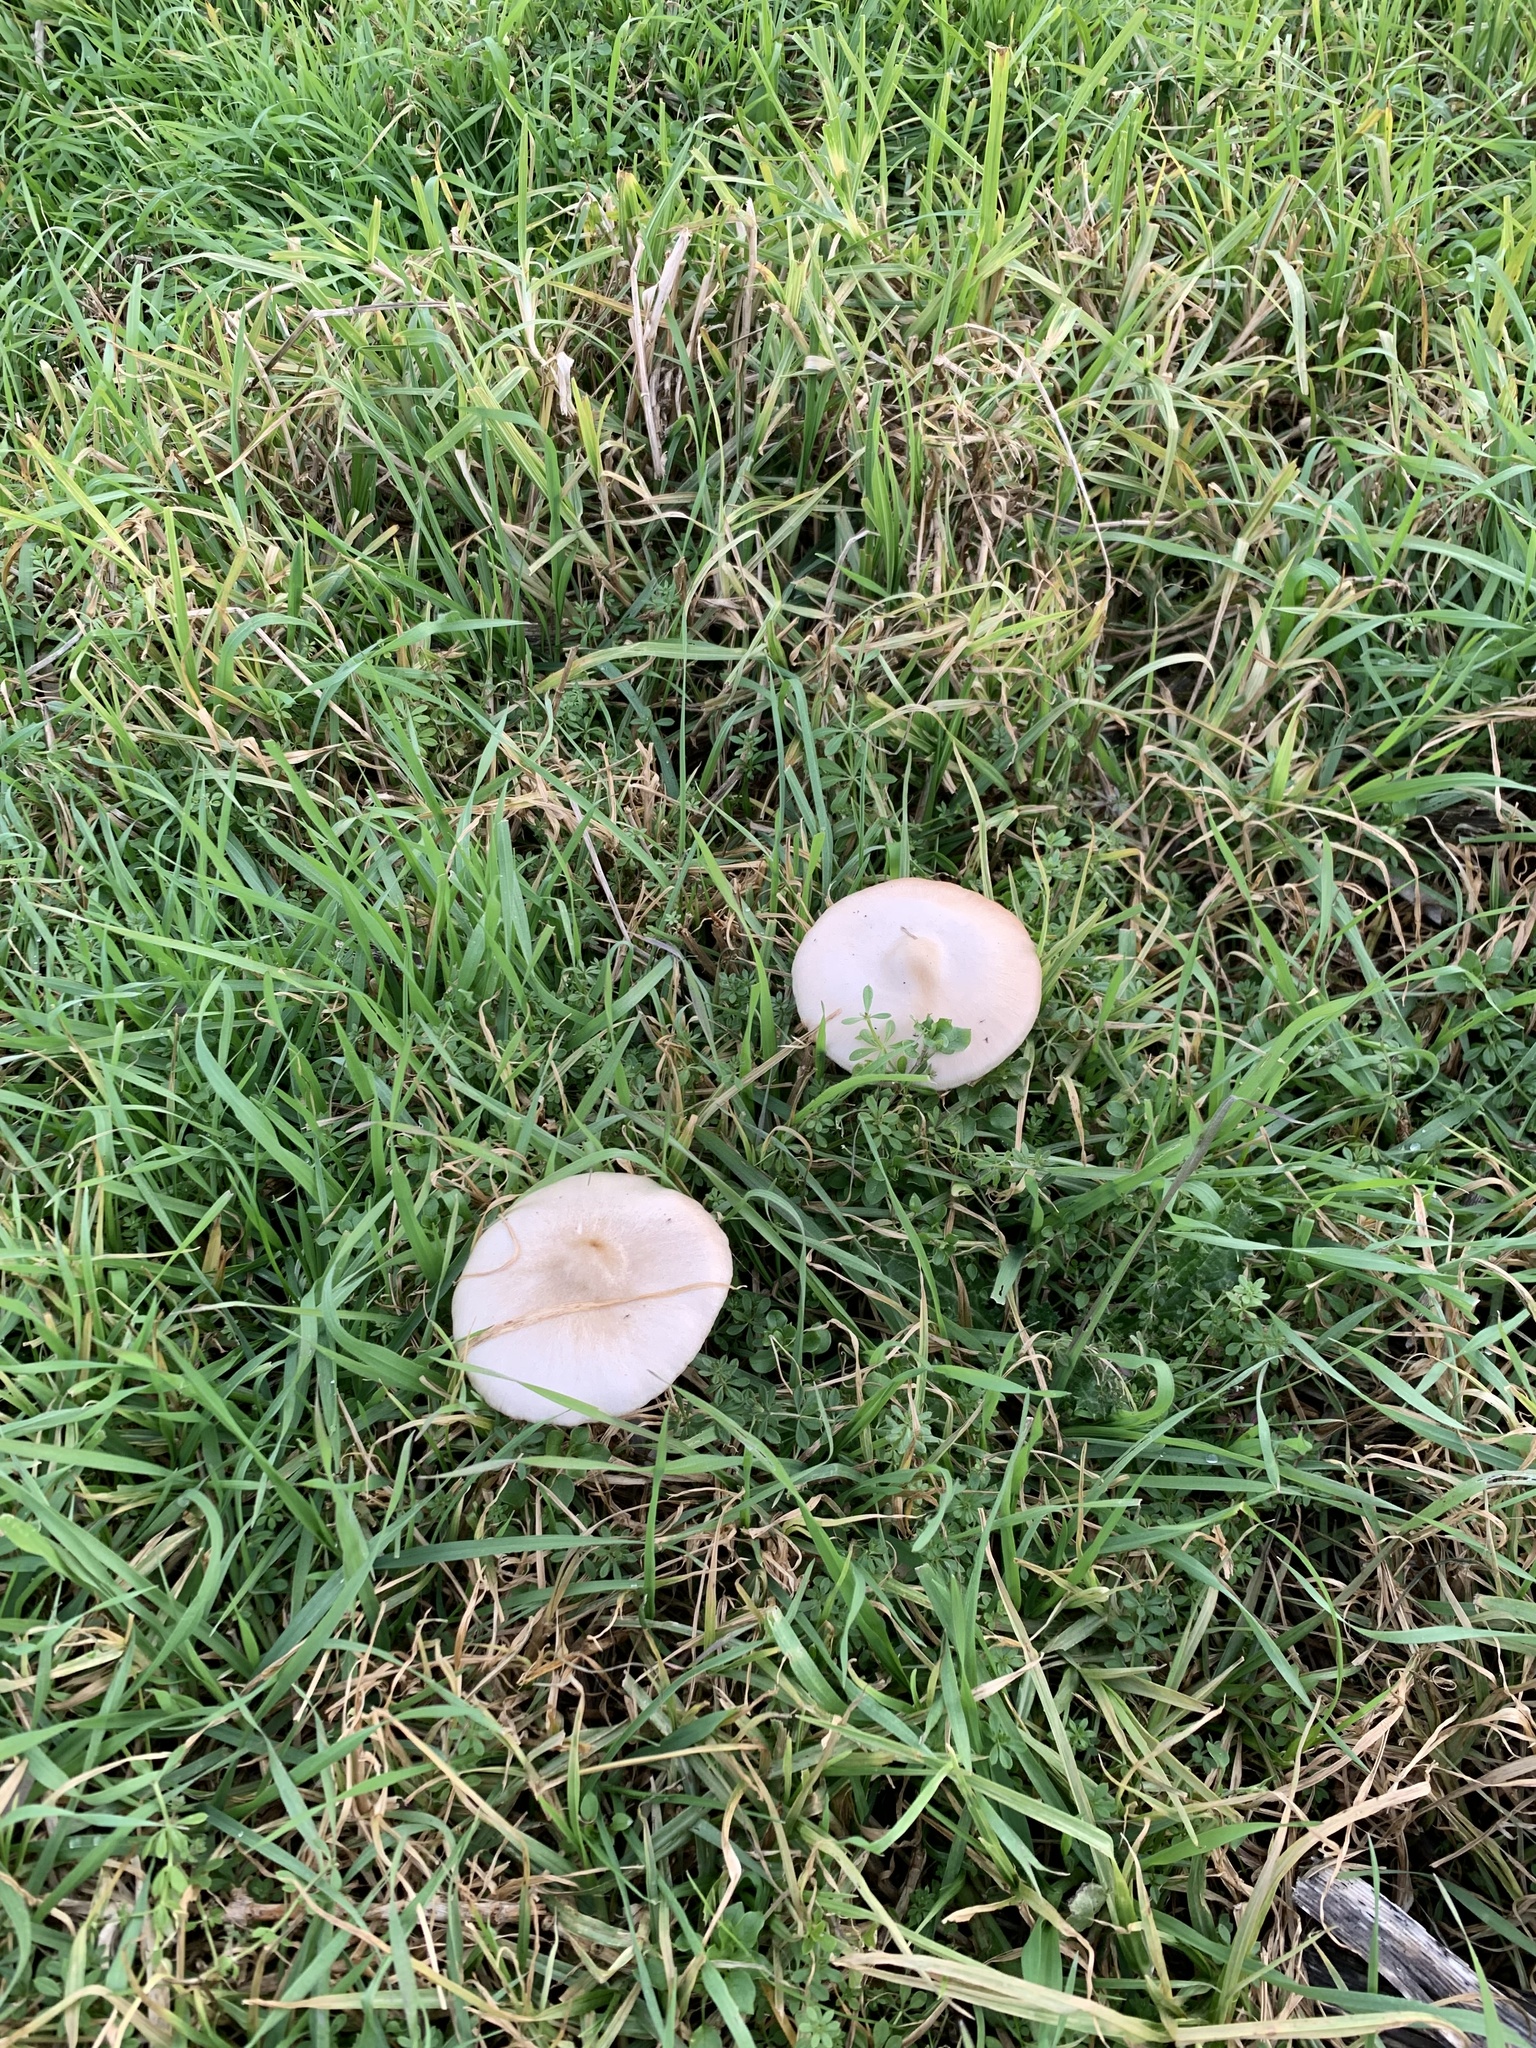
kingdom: Fungi
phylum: Basidiomycota
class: Agaricomycetes
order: Agaricales
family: Pluteaceae
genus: Volvopluteus
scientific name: Volvopluteus gloiocephalus
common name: Stubble rosegill
